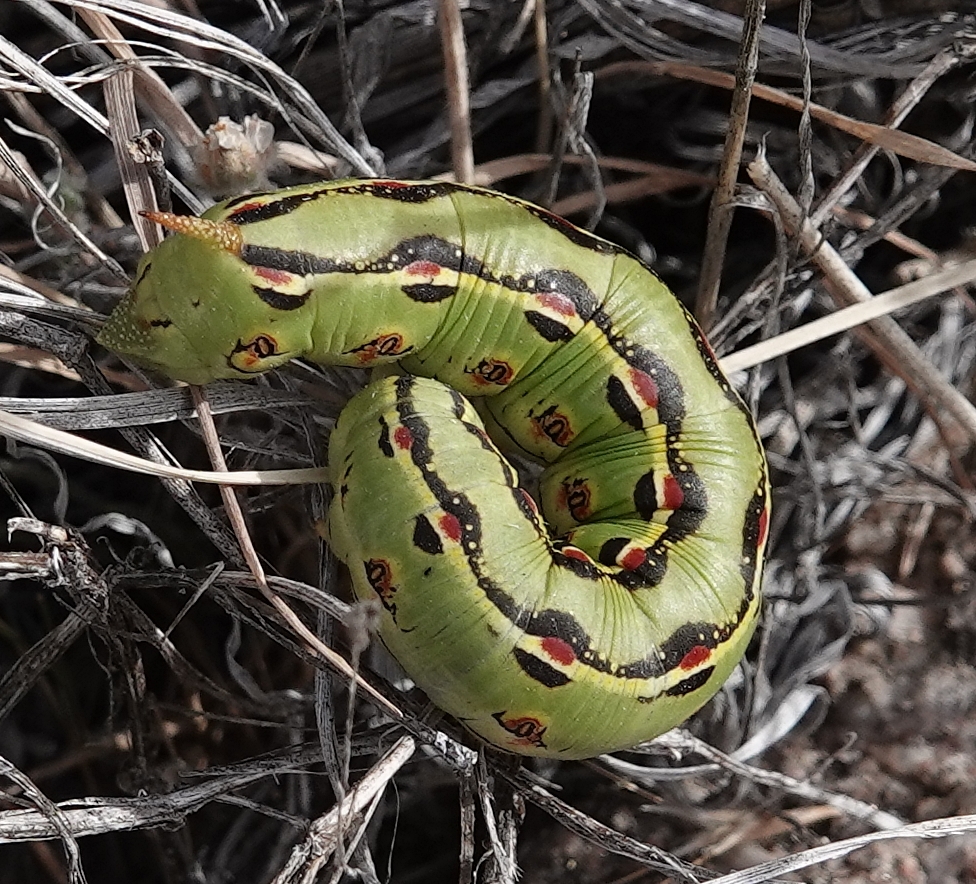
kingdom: Animalia
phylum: Arthropoda
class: Insecta
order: Lepidoptera
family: Sphingidae
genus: Hyles
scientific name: Hyles lineata
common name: White-lined sphinx
